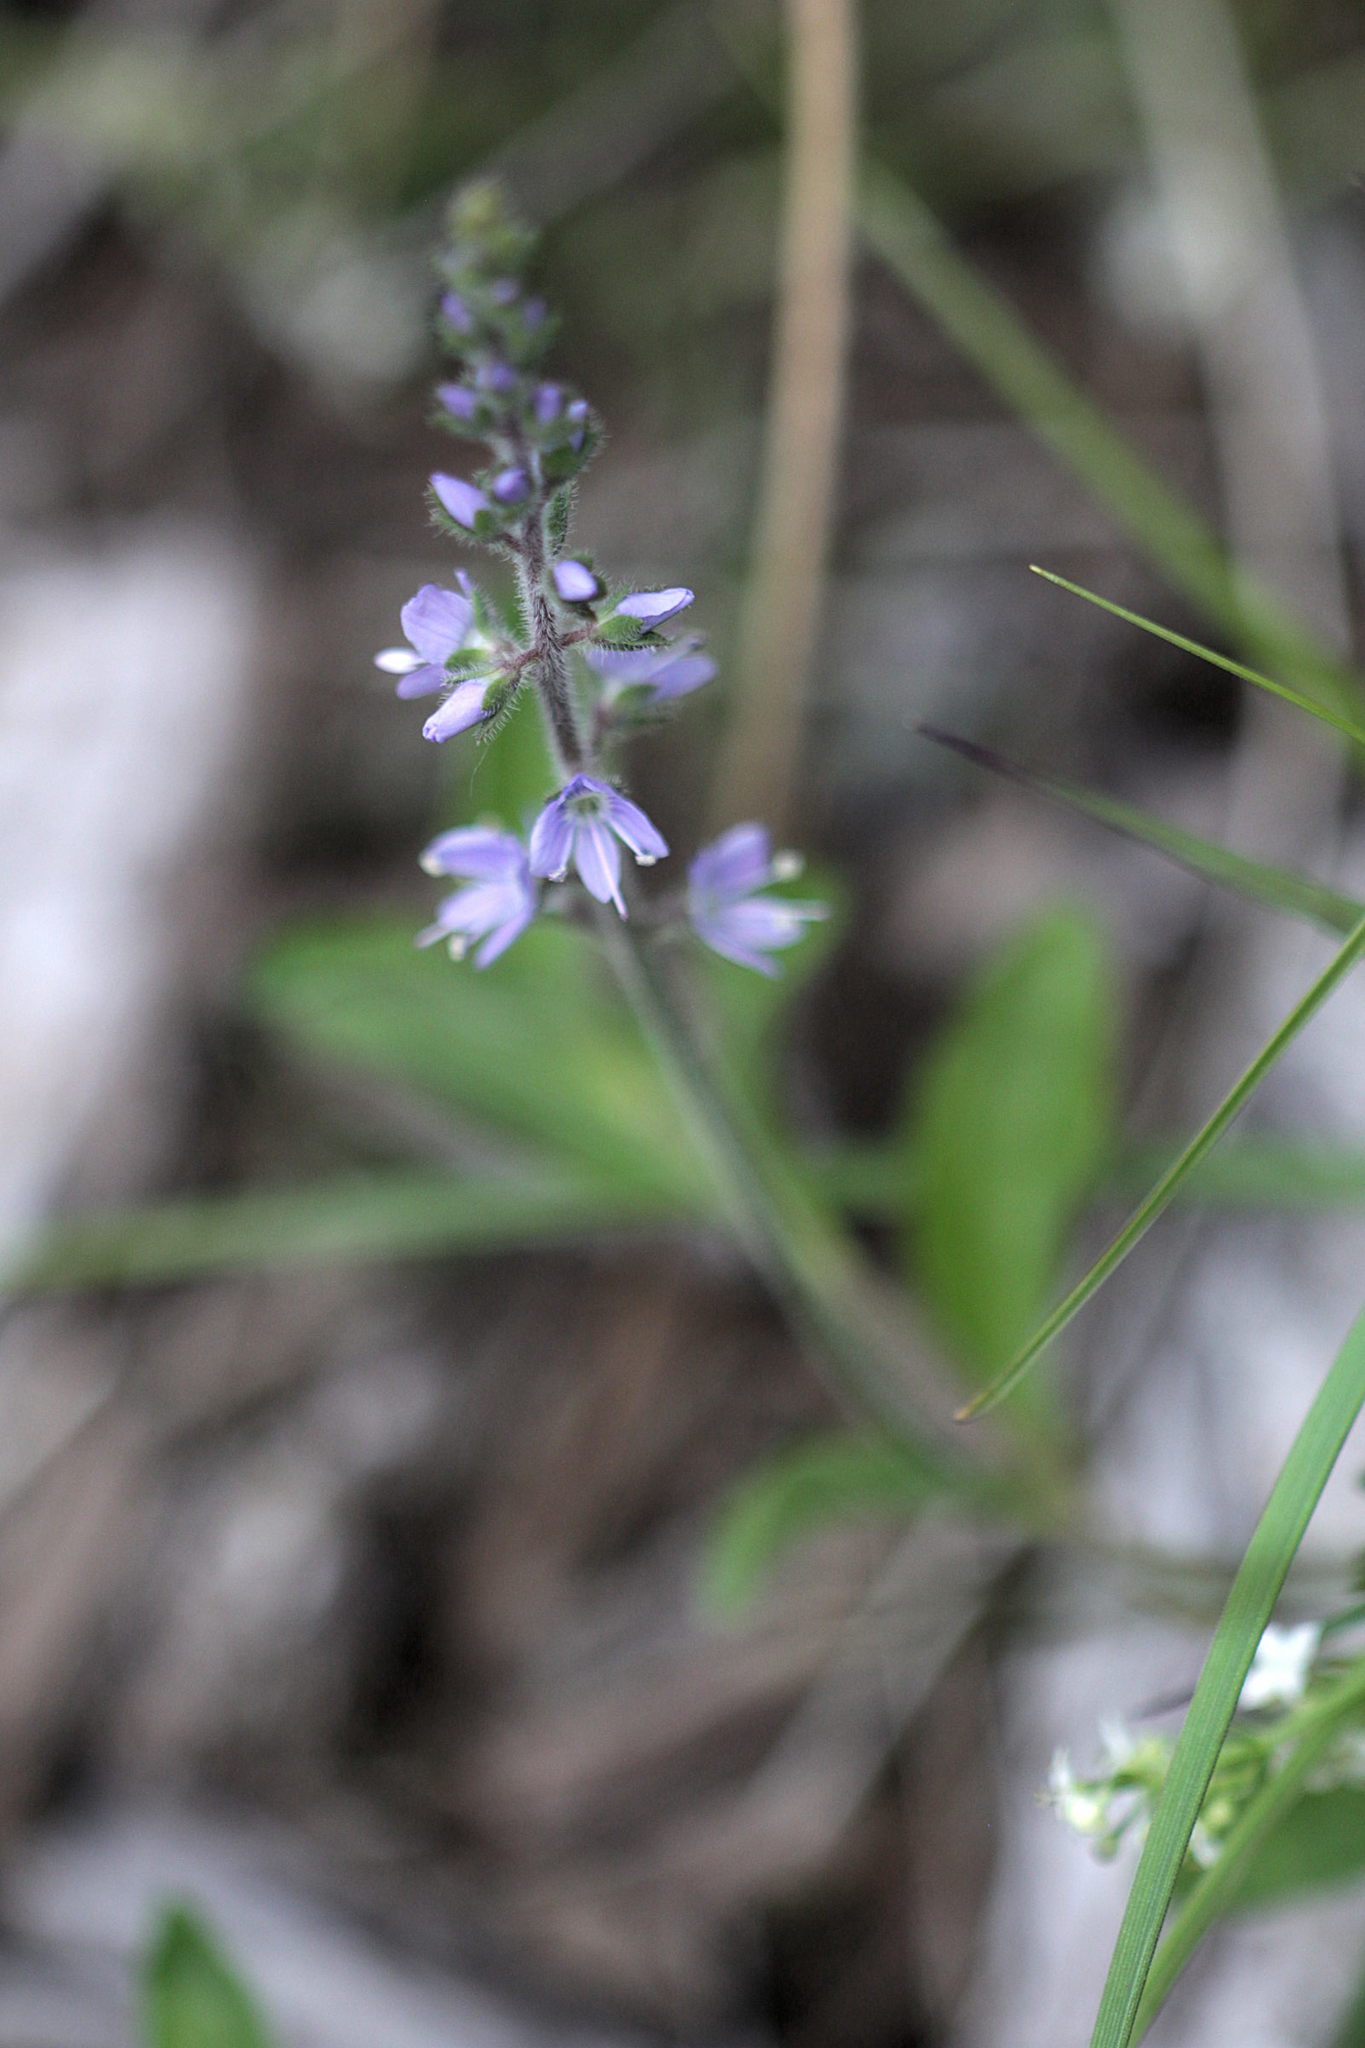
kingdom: Plantae
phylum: Tracheophyta
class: Magnoliopsida
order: Lamiales
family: Plantaginaceae
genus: Veronica
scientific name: Veronica officinalis
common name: Common speedwell
